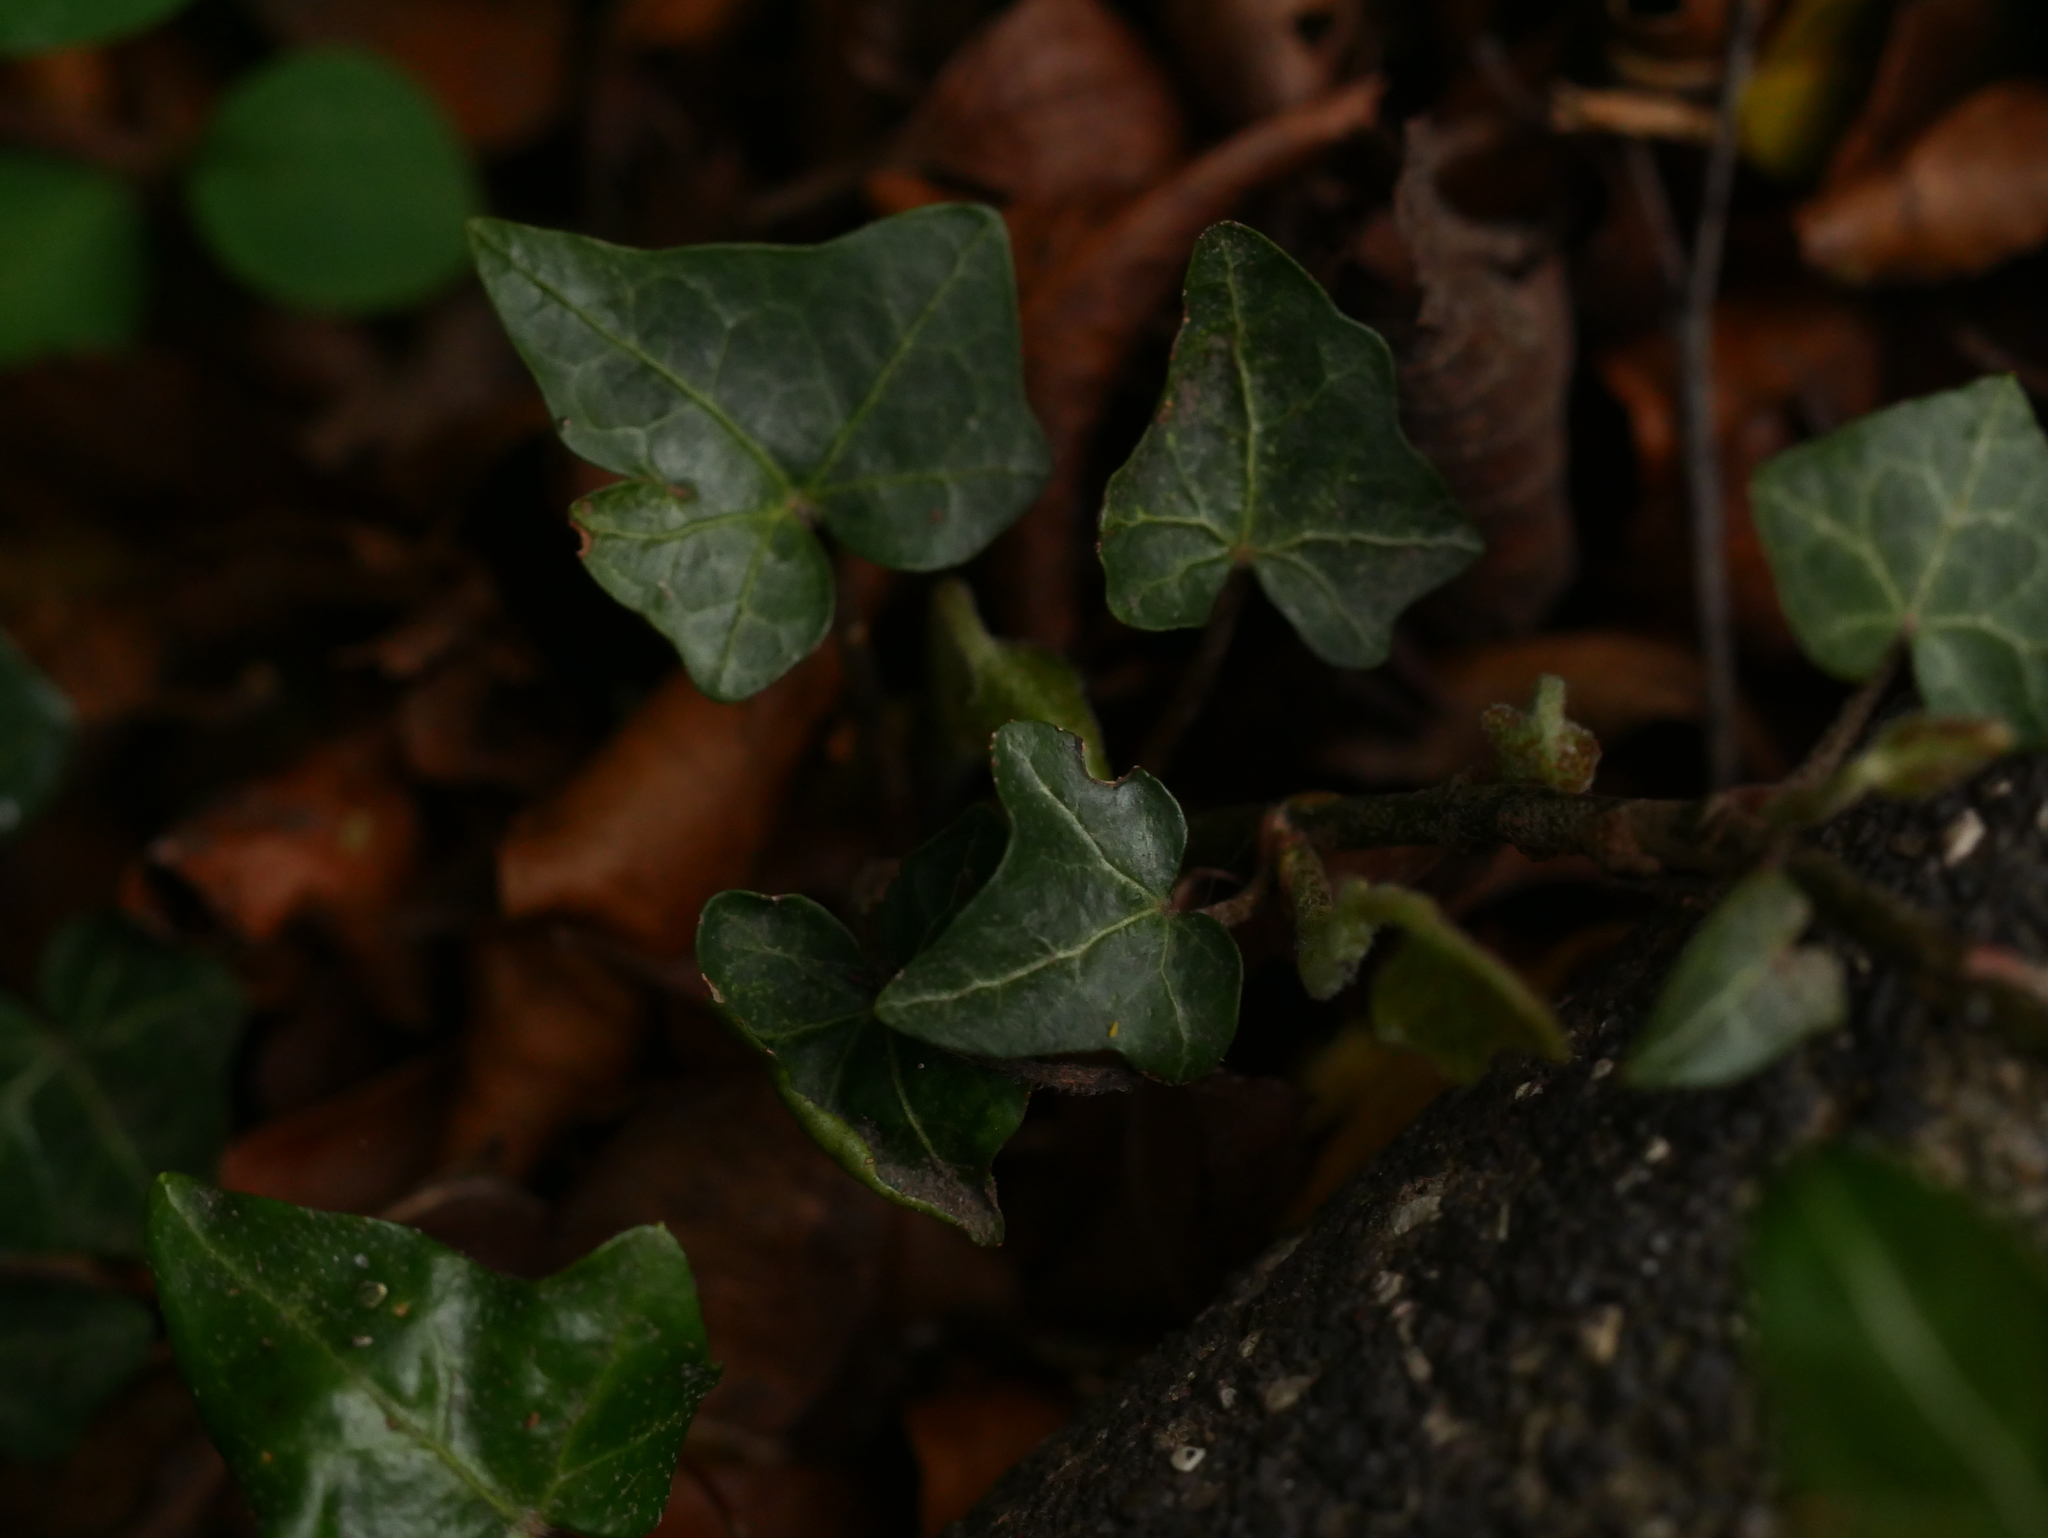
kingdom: Plantae
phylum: Tracheophyta
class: Magnoliopsida
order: Apiales
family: Araliaceae
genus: Hedera
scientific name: Hedera helix
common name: Ivy
